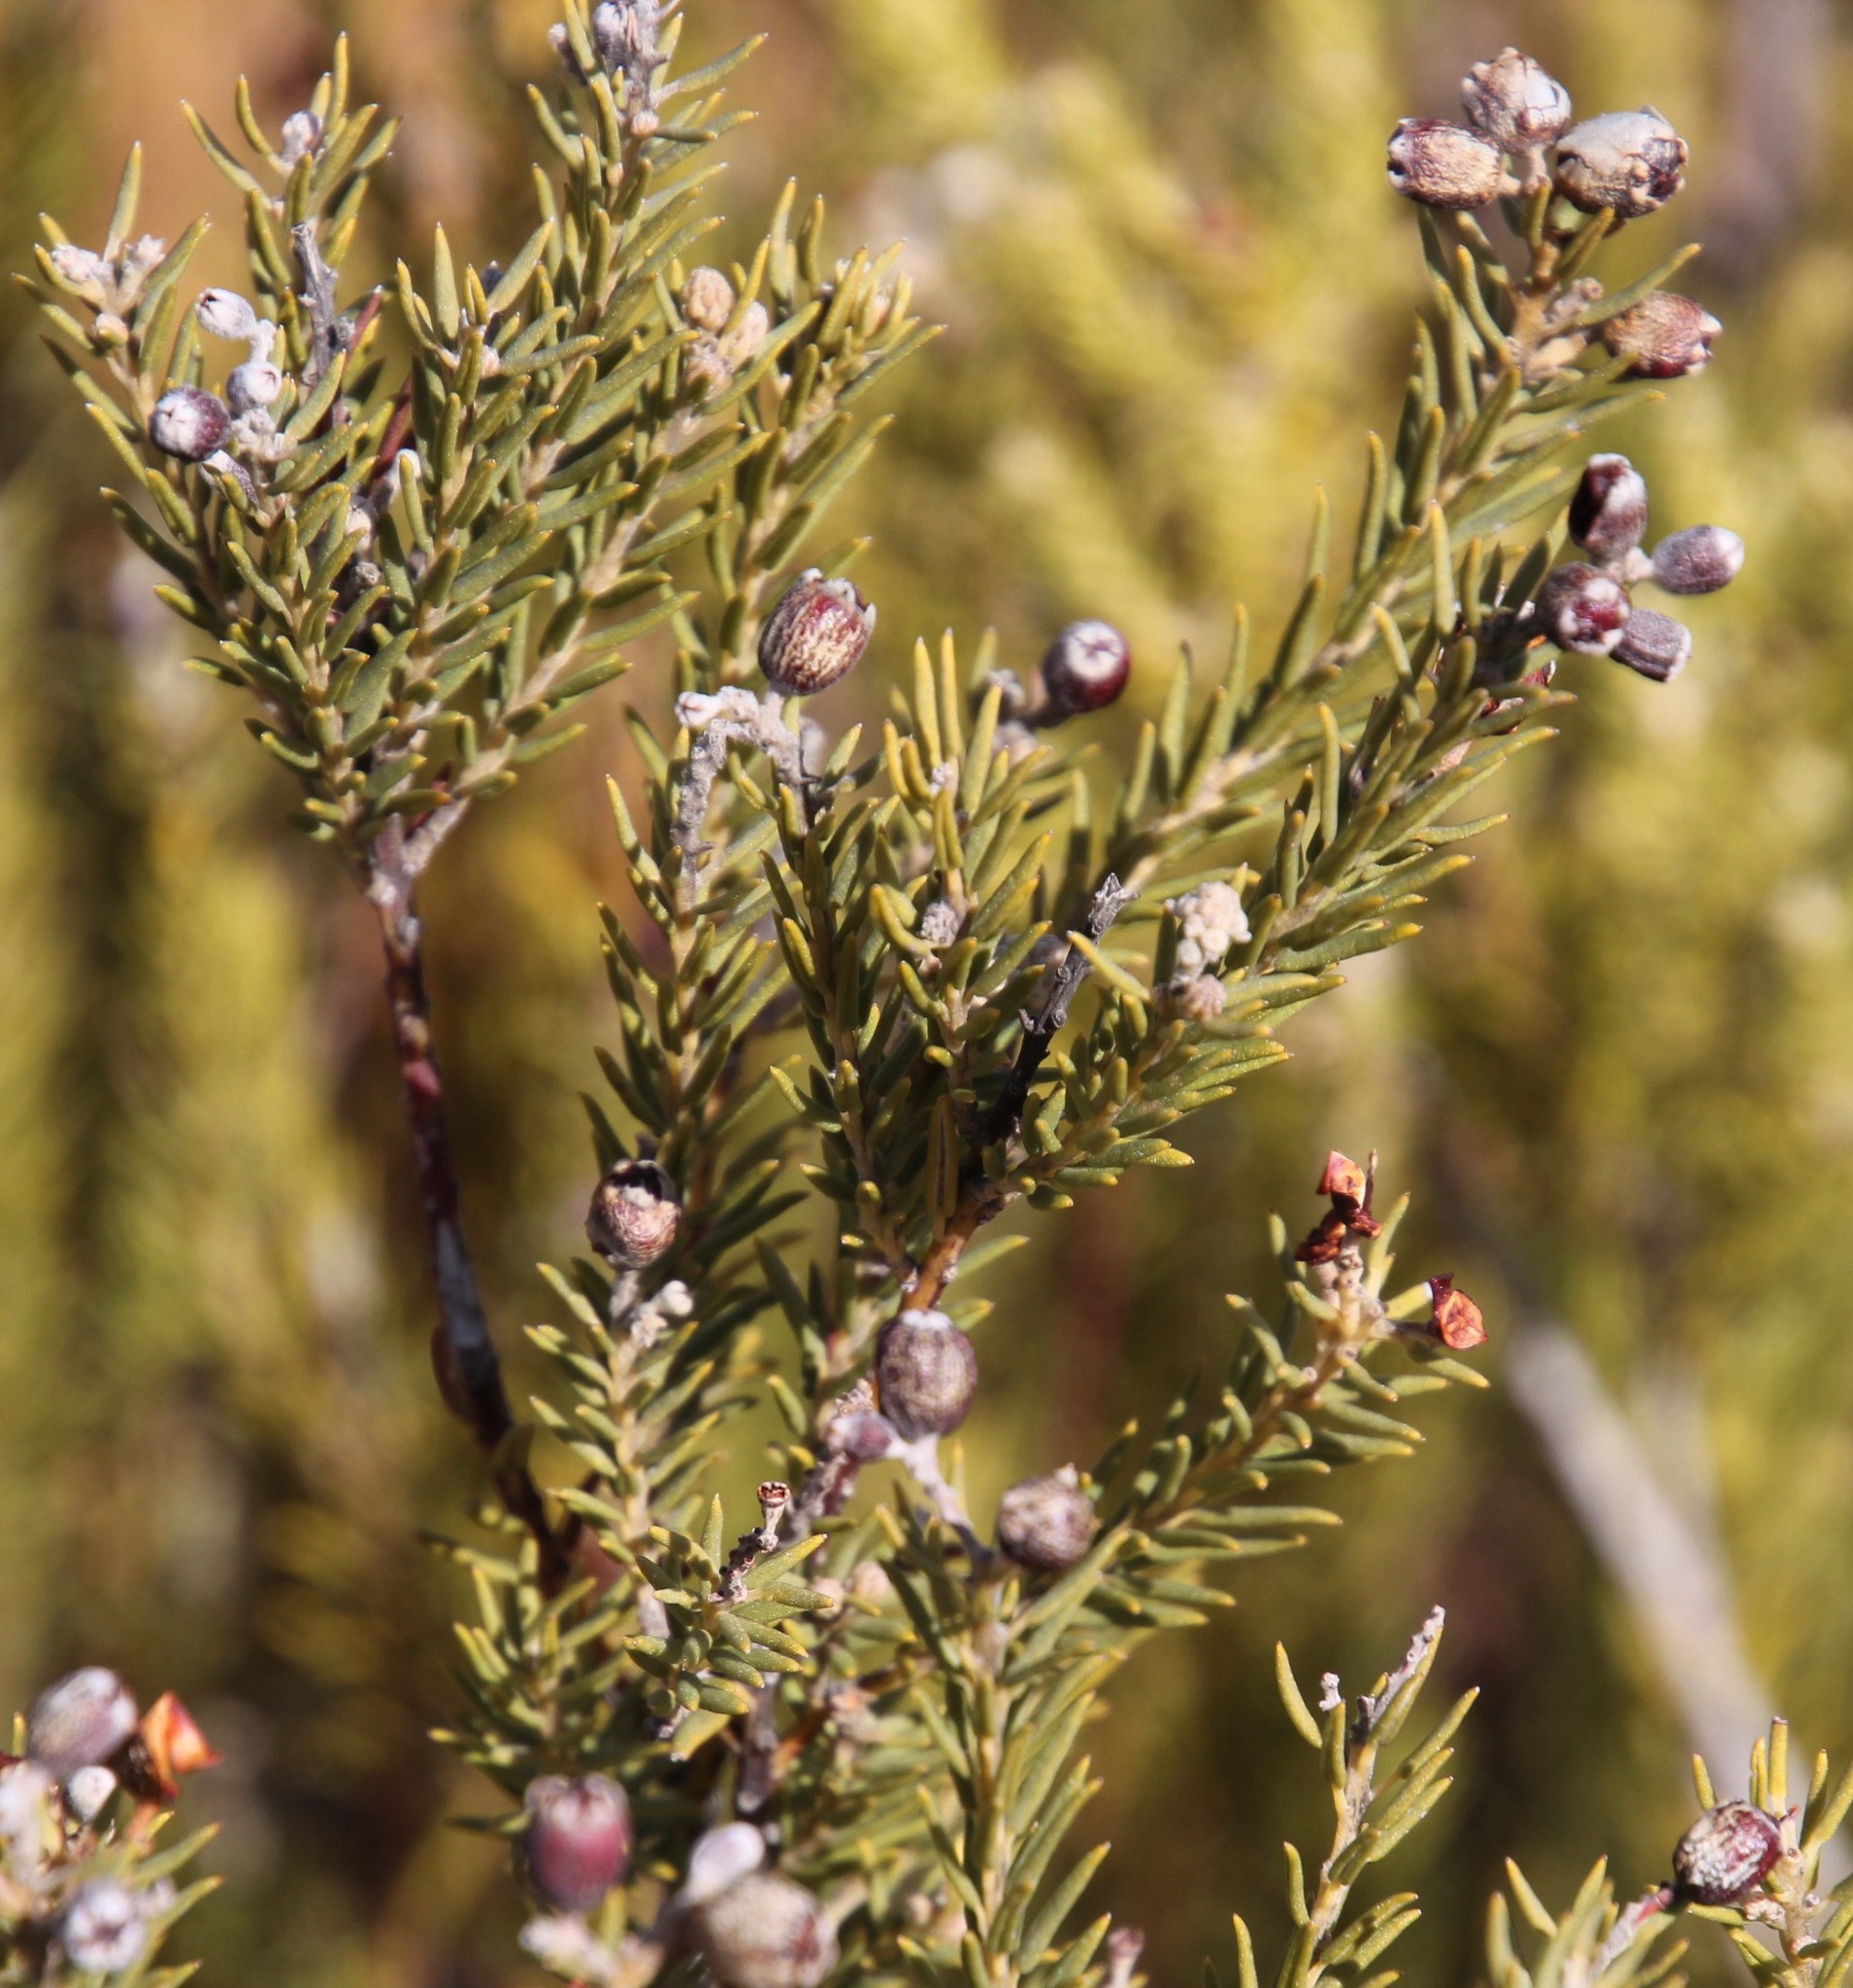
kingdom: Plantae
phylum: Tracheophyta
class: Magnoliopsida
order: Rosales
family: Rhamnaceae
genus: Phylica
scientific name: Phylica rigidifolia
